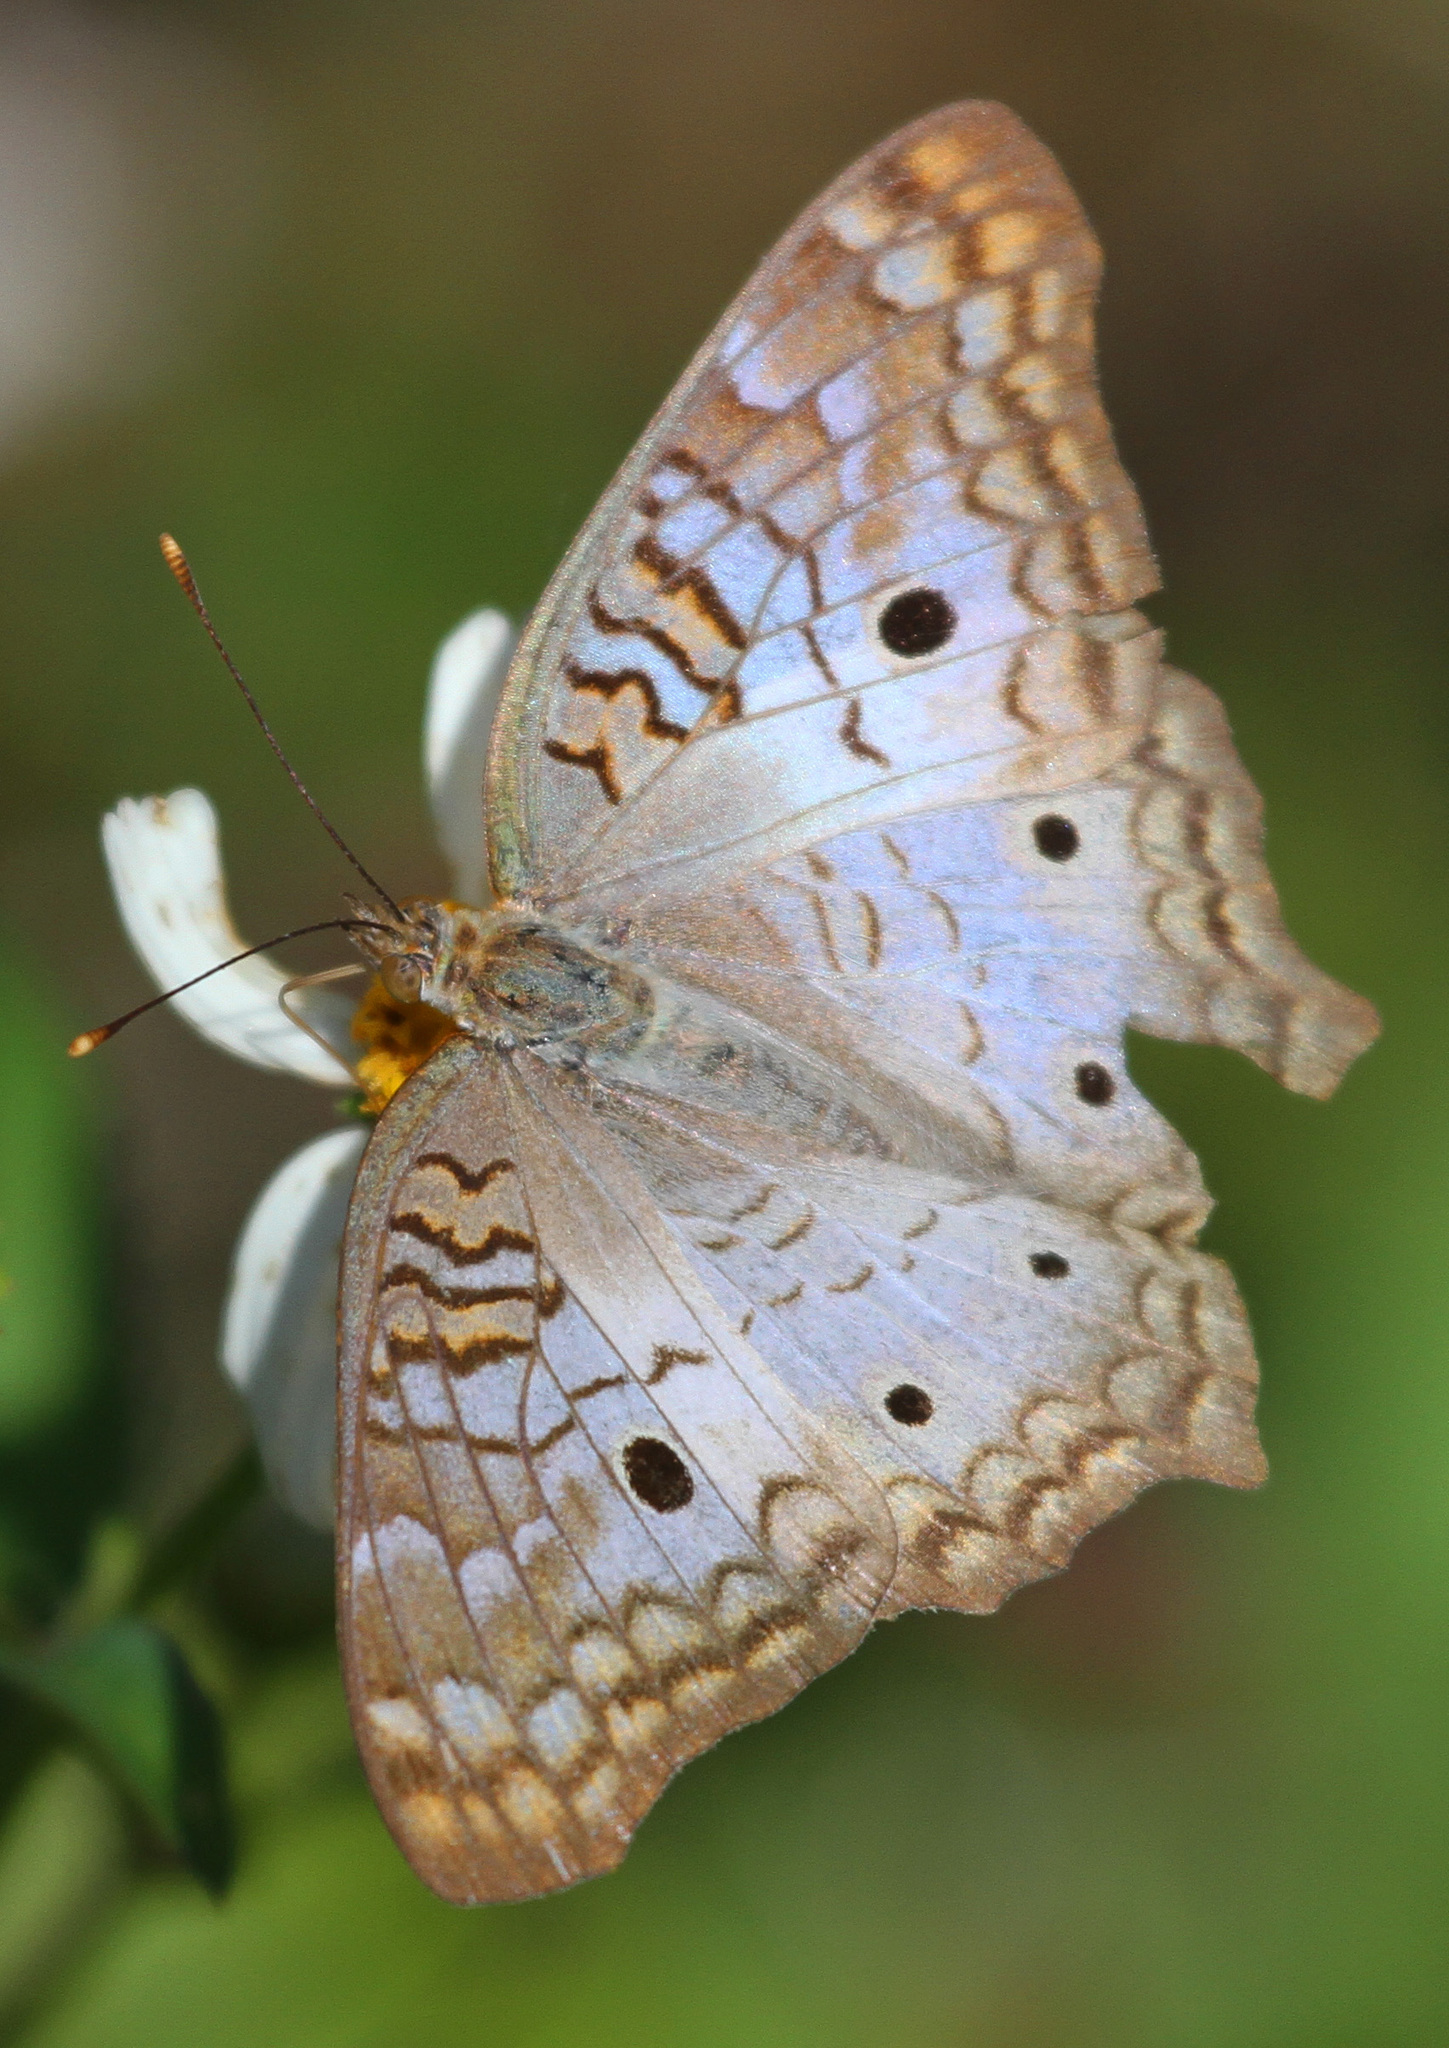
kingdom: Animalia
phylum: Arthropoda
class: Insecta
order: Lepidoptera
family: Nymphalidae
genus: Anartia
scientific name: Anartia jatrophae
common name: White peacock
